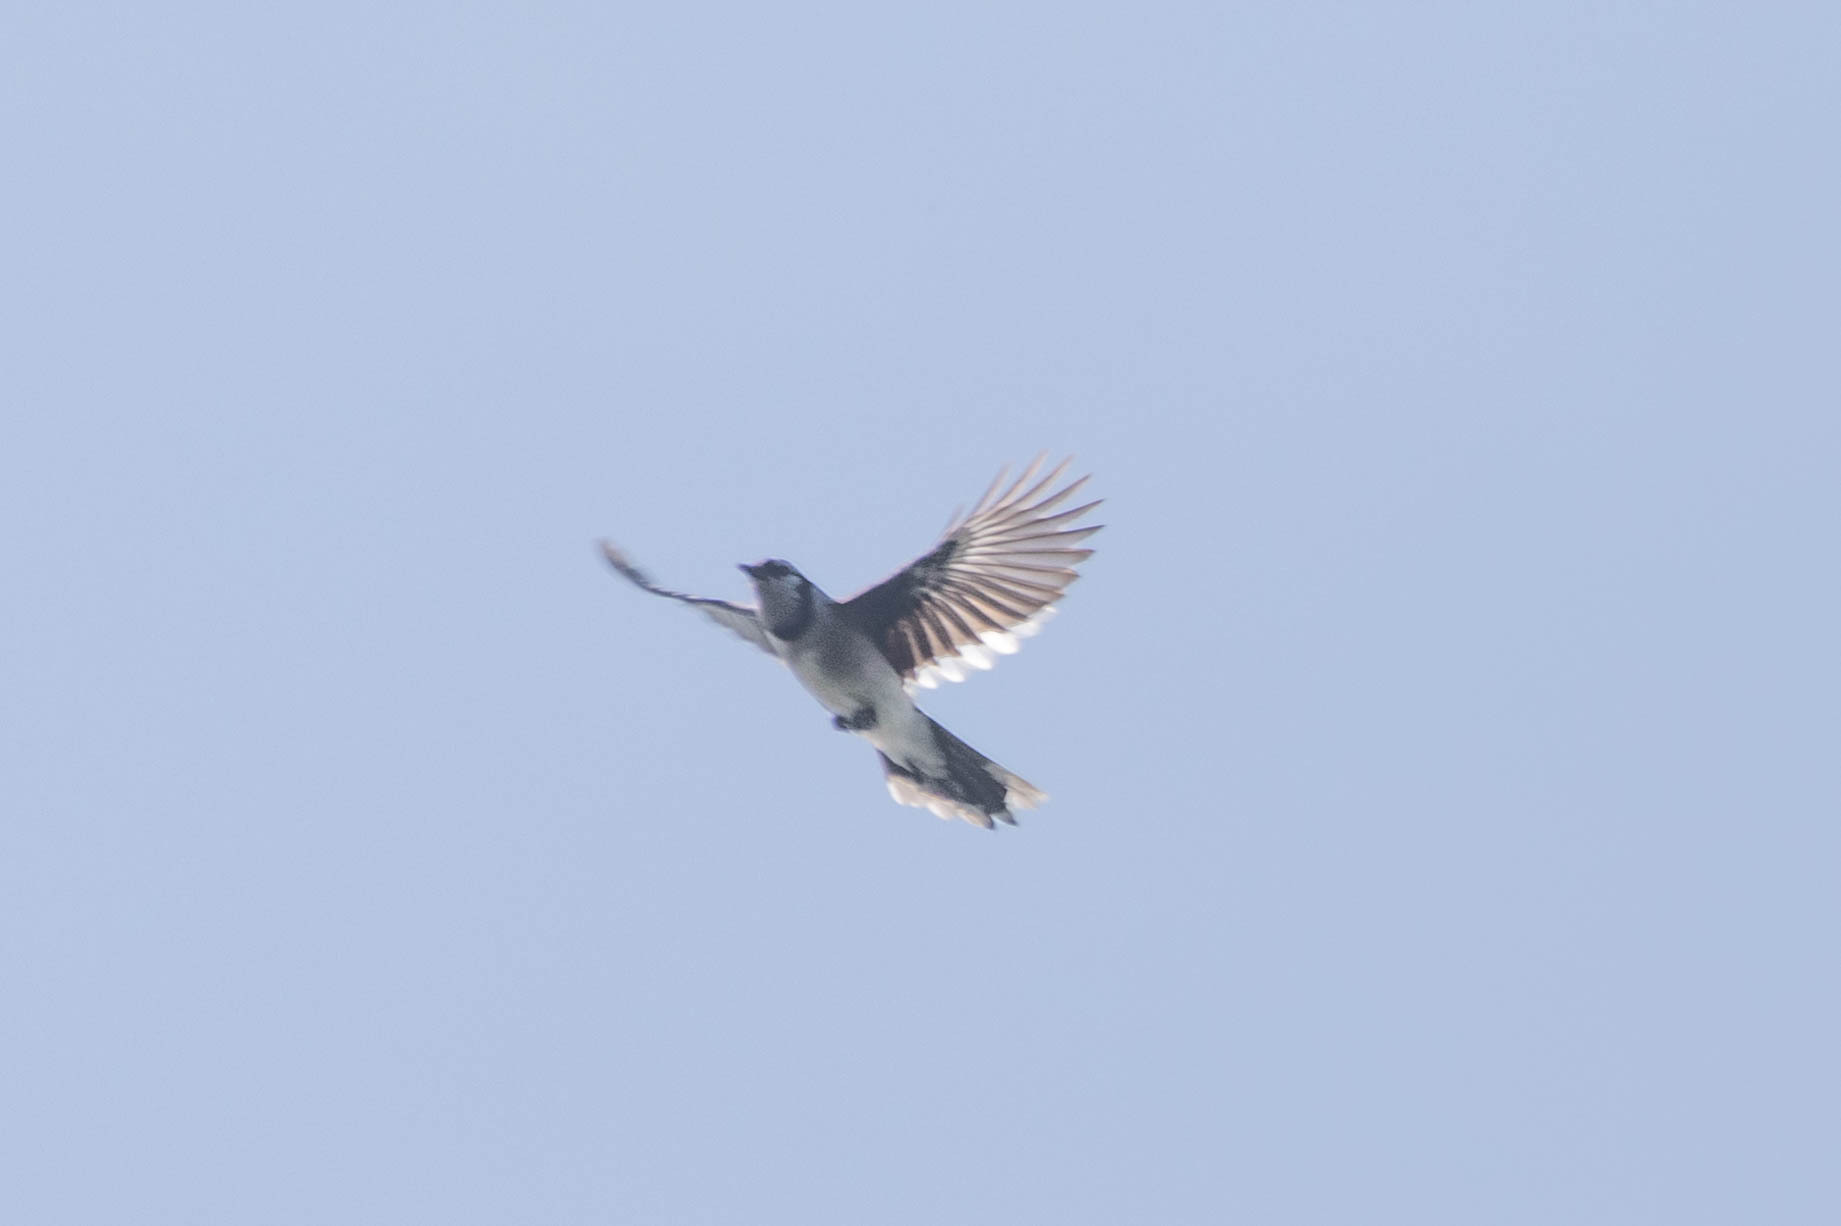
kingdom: Animalia
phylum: Chordata
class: Aves
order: Passeriformes
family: Corvidae
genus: Cyanocitta
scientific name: Cyanocitta cristata
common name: Blue jay
